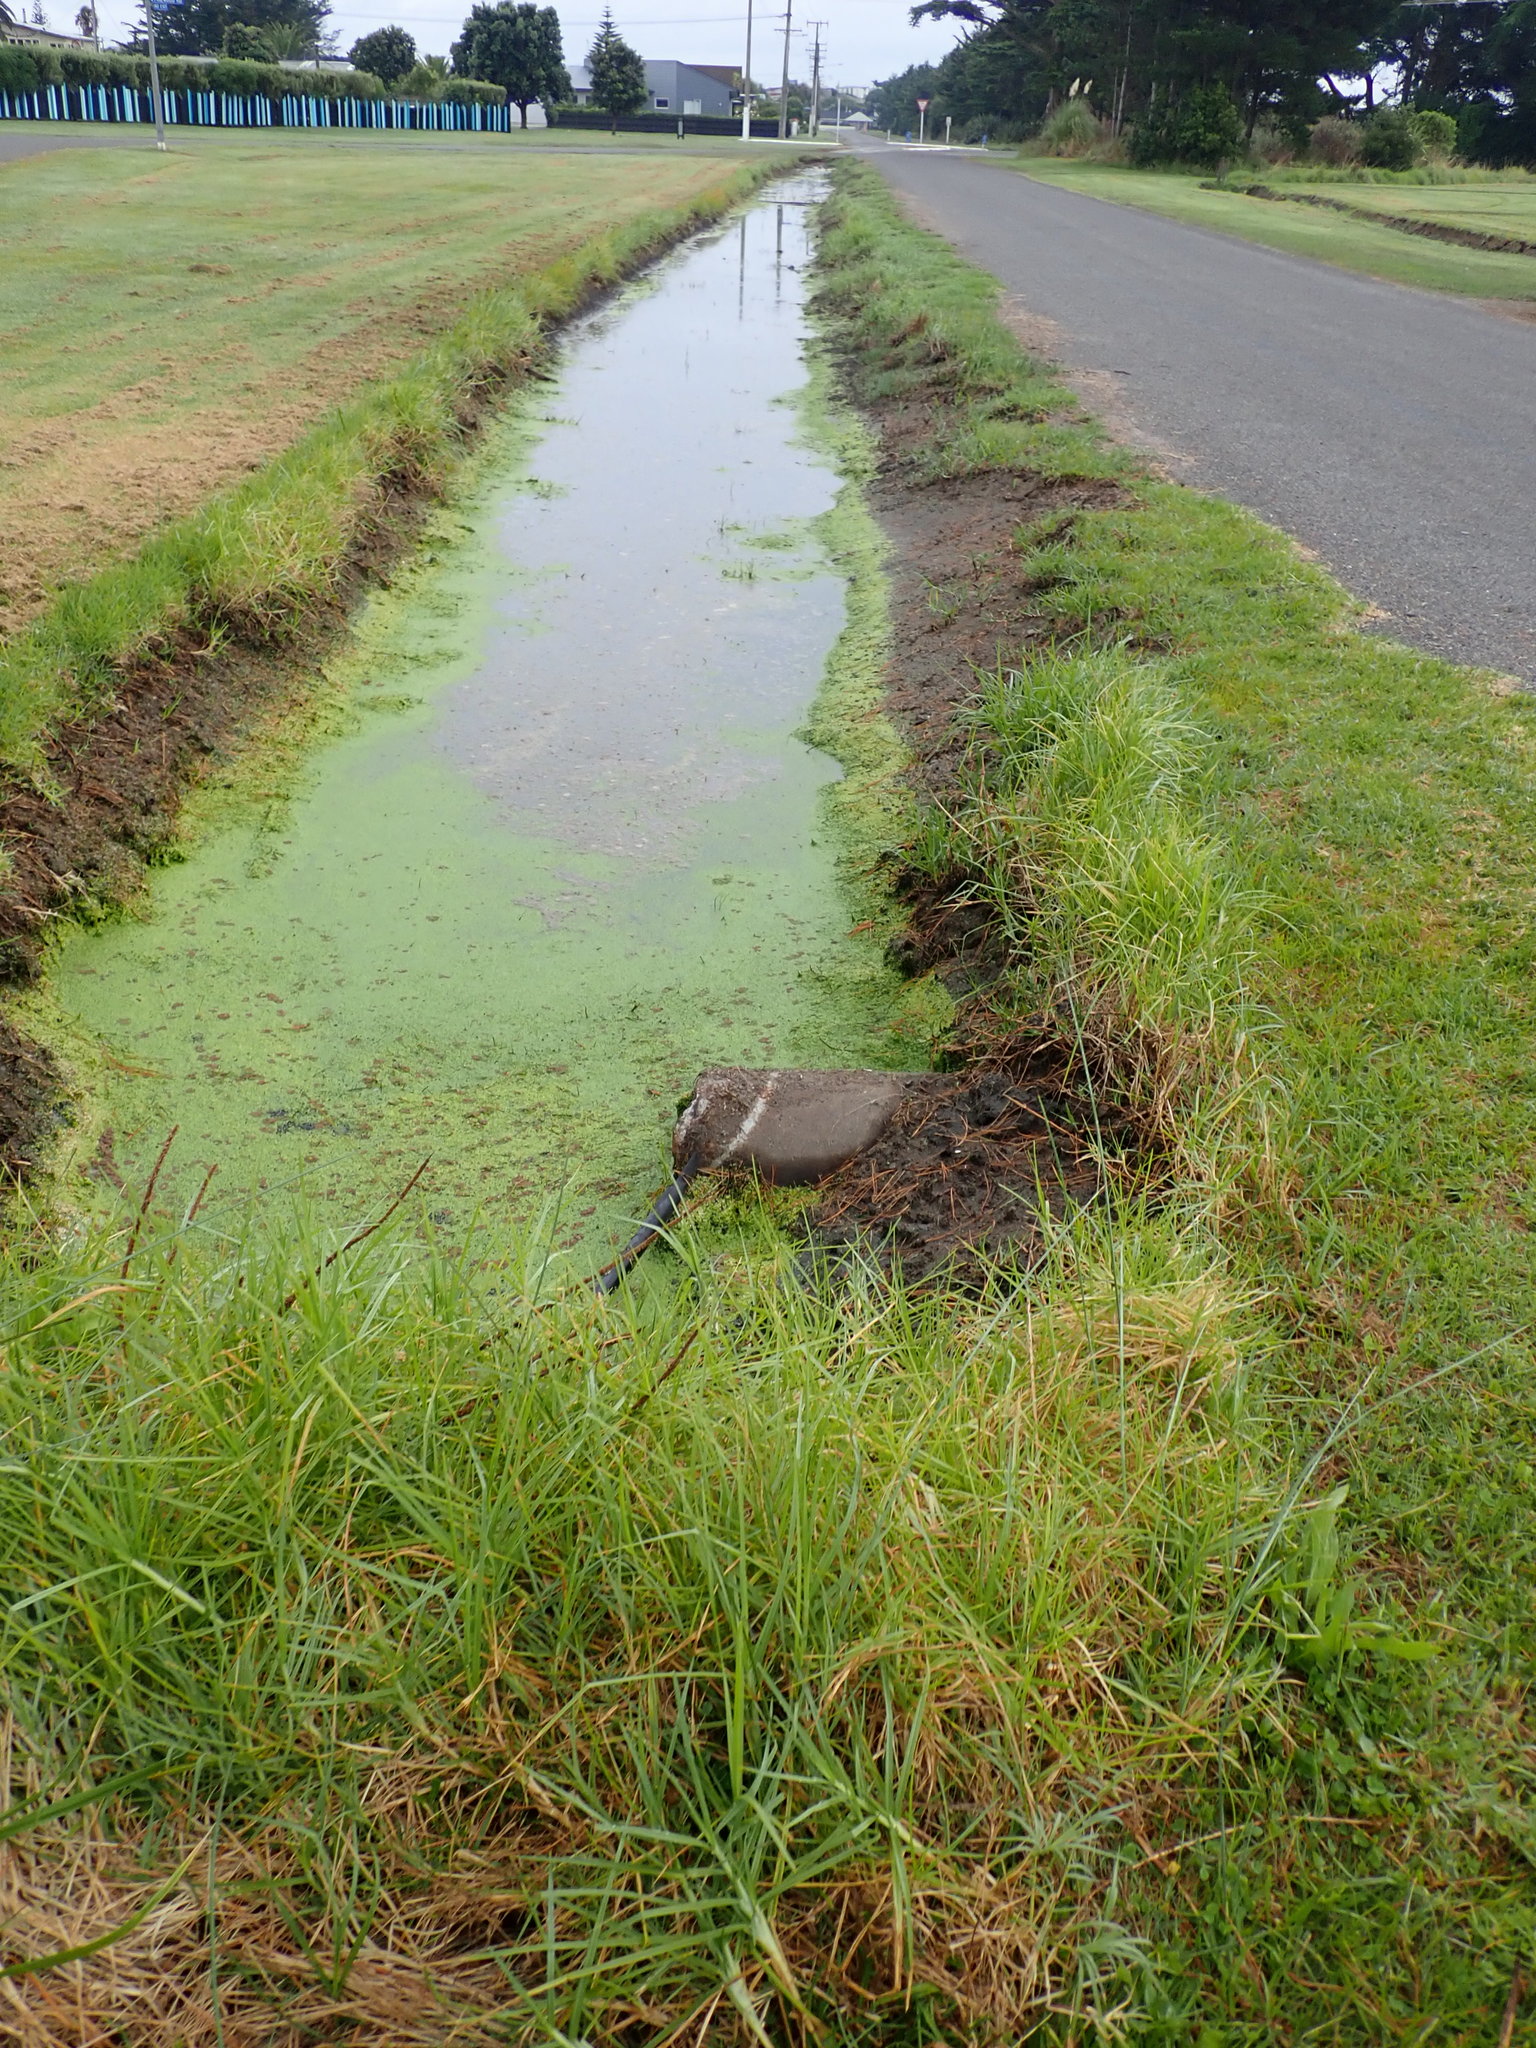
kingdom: Plantae
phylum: Tracheophyta
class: Polypodiopsida
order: Salviniales
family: Salviniaceae
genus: Azolla
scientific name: Azolla rubra
